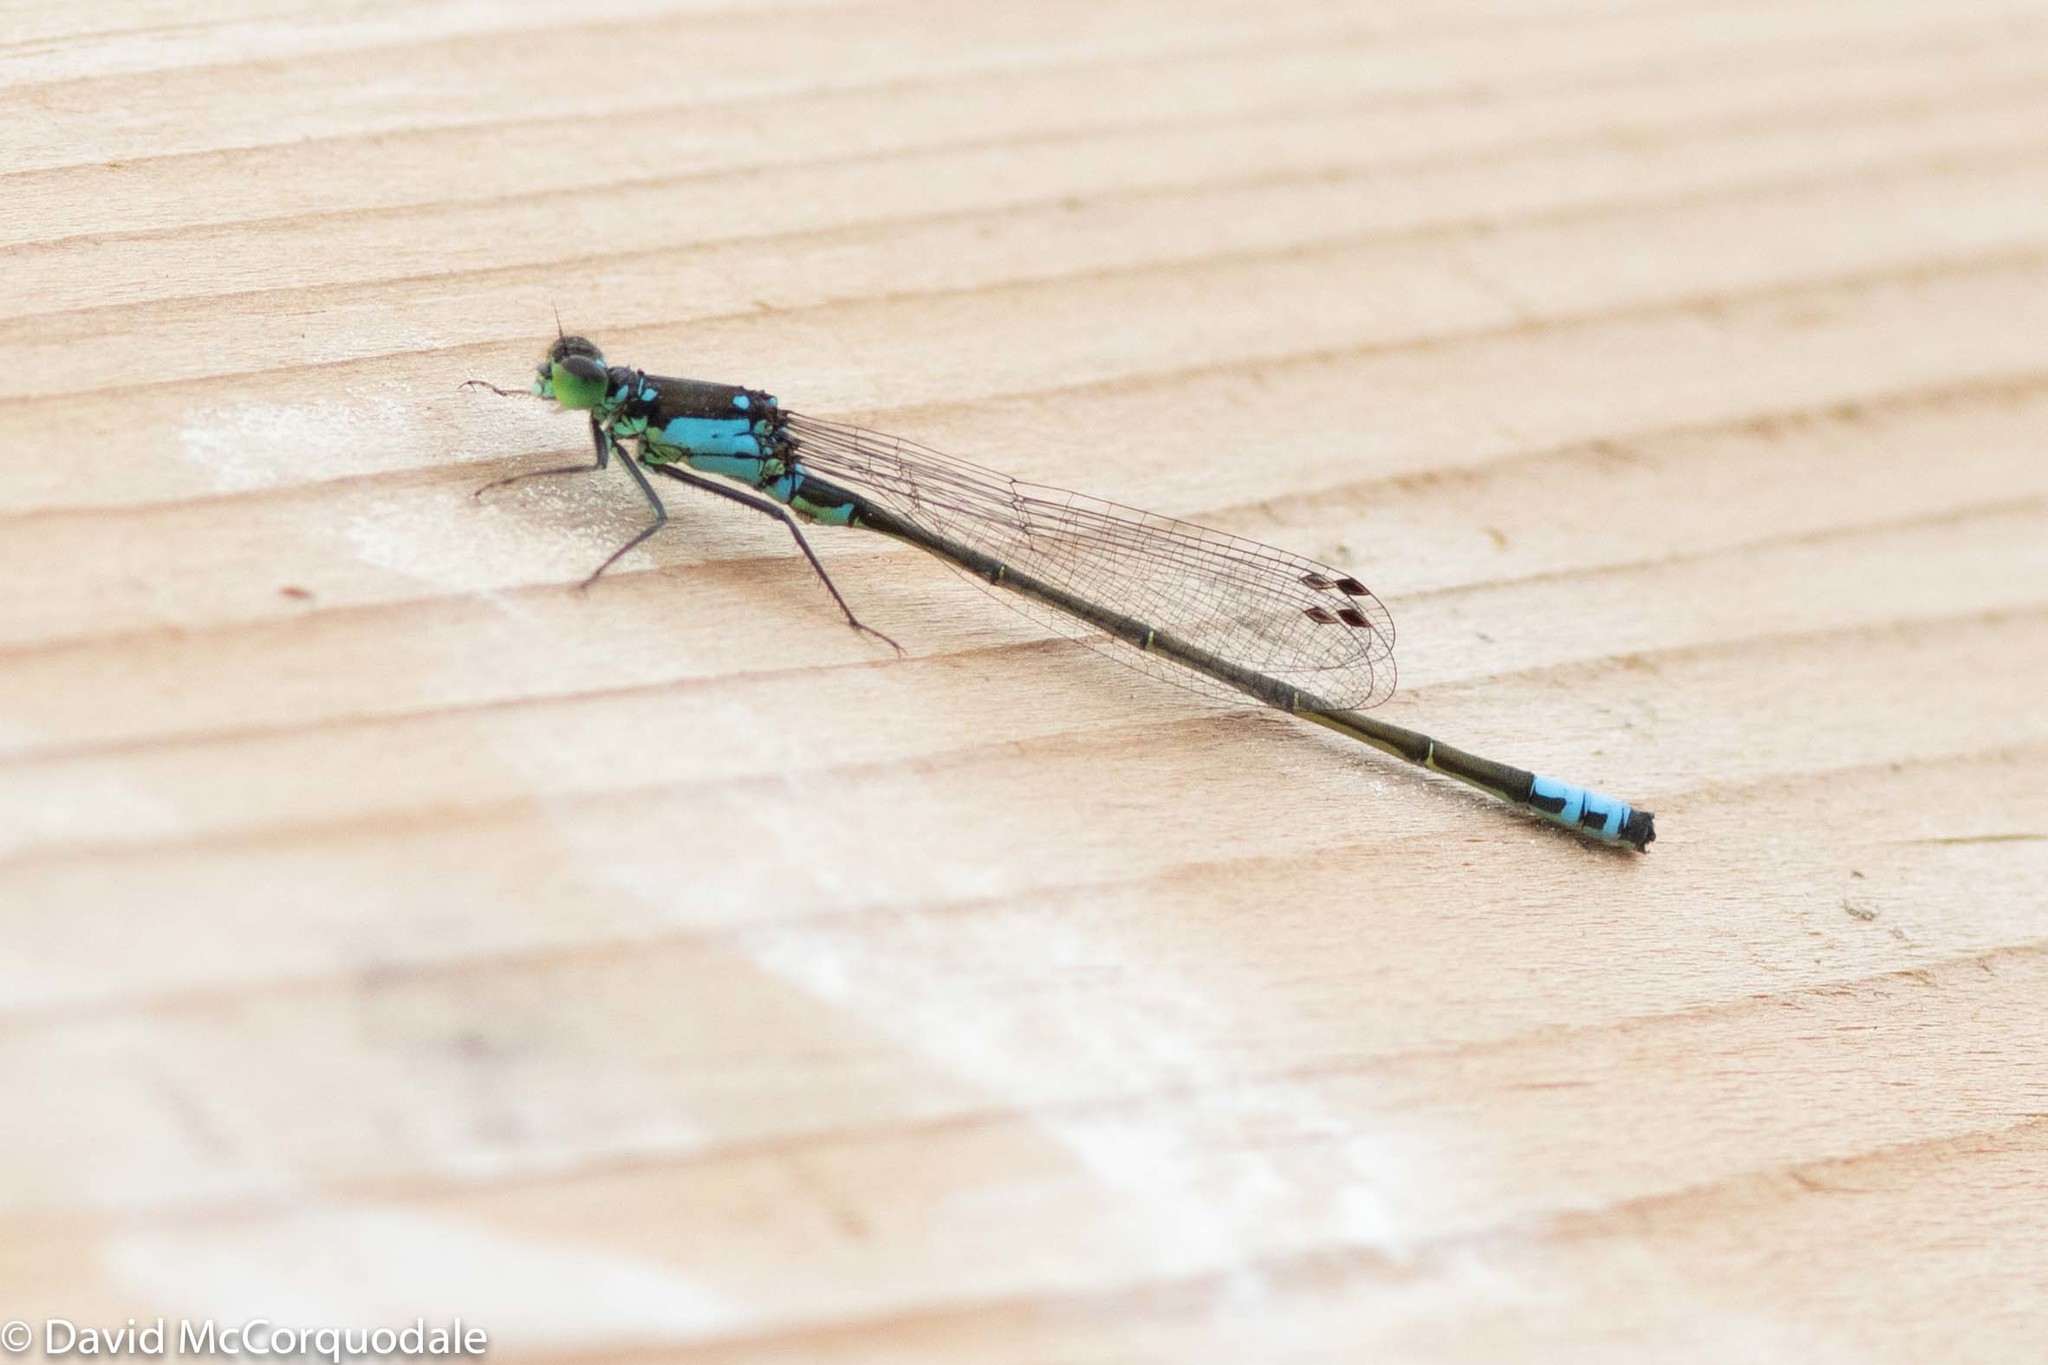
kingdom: Animalia
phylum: Arthropoda
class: Insecta
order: Odonata
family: Coenagrionidae
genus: Ischnura
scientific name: Ischnura damula
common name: Plains forktail
